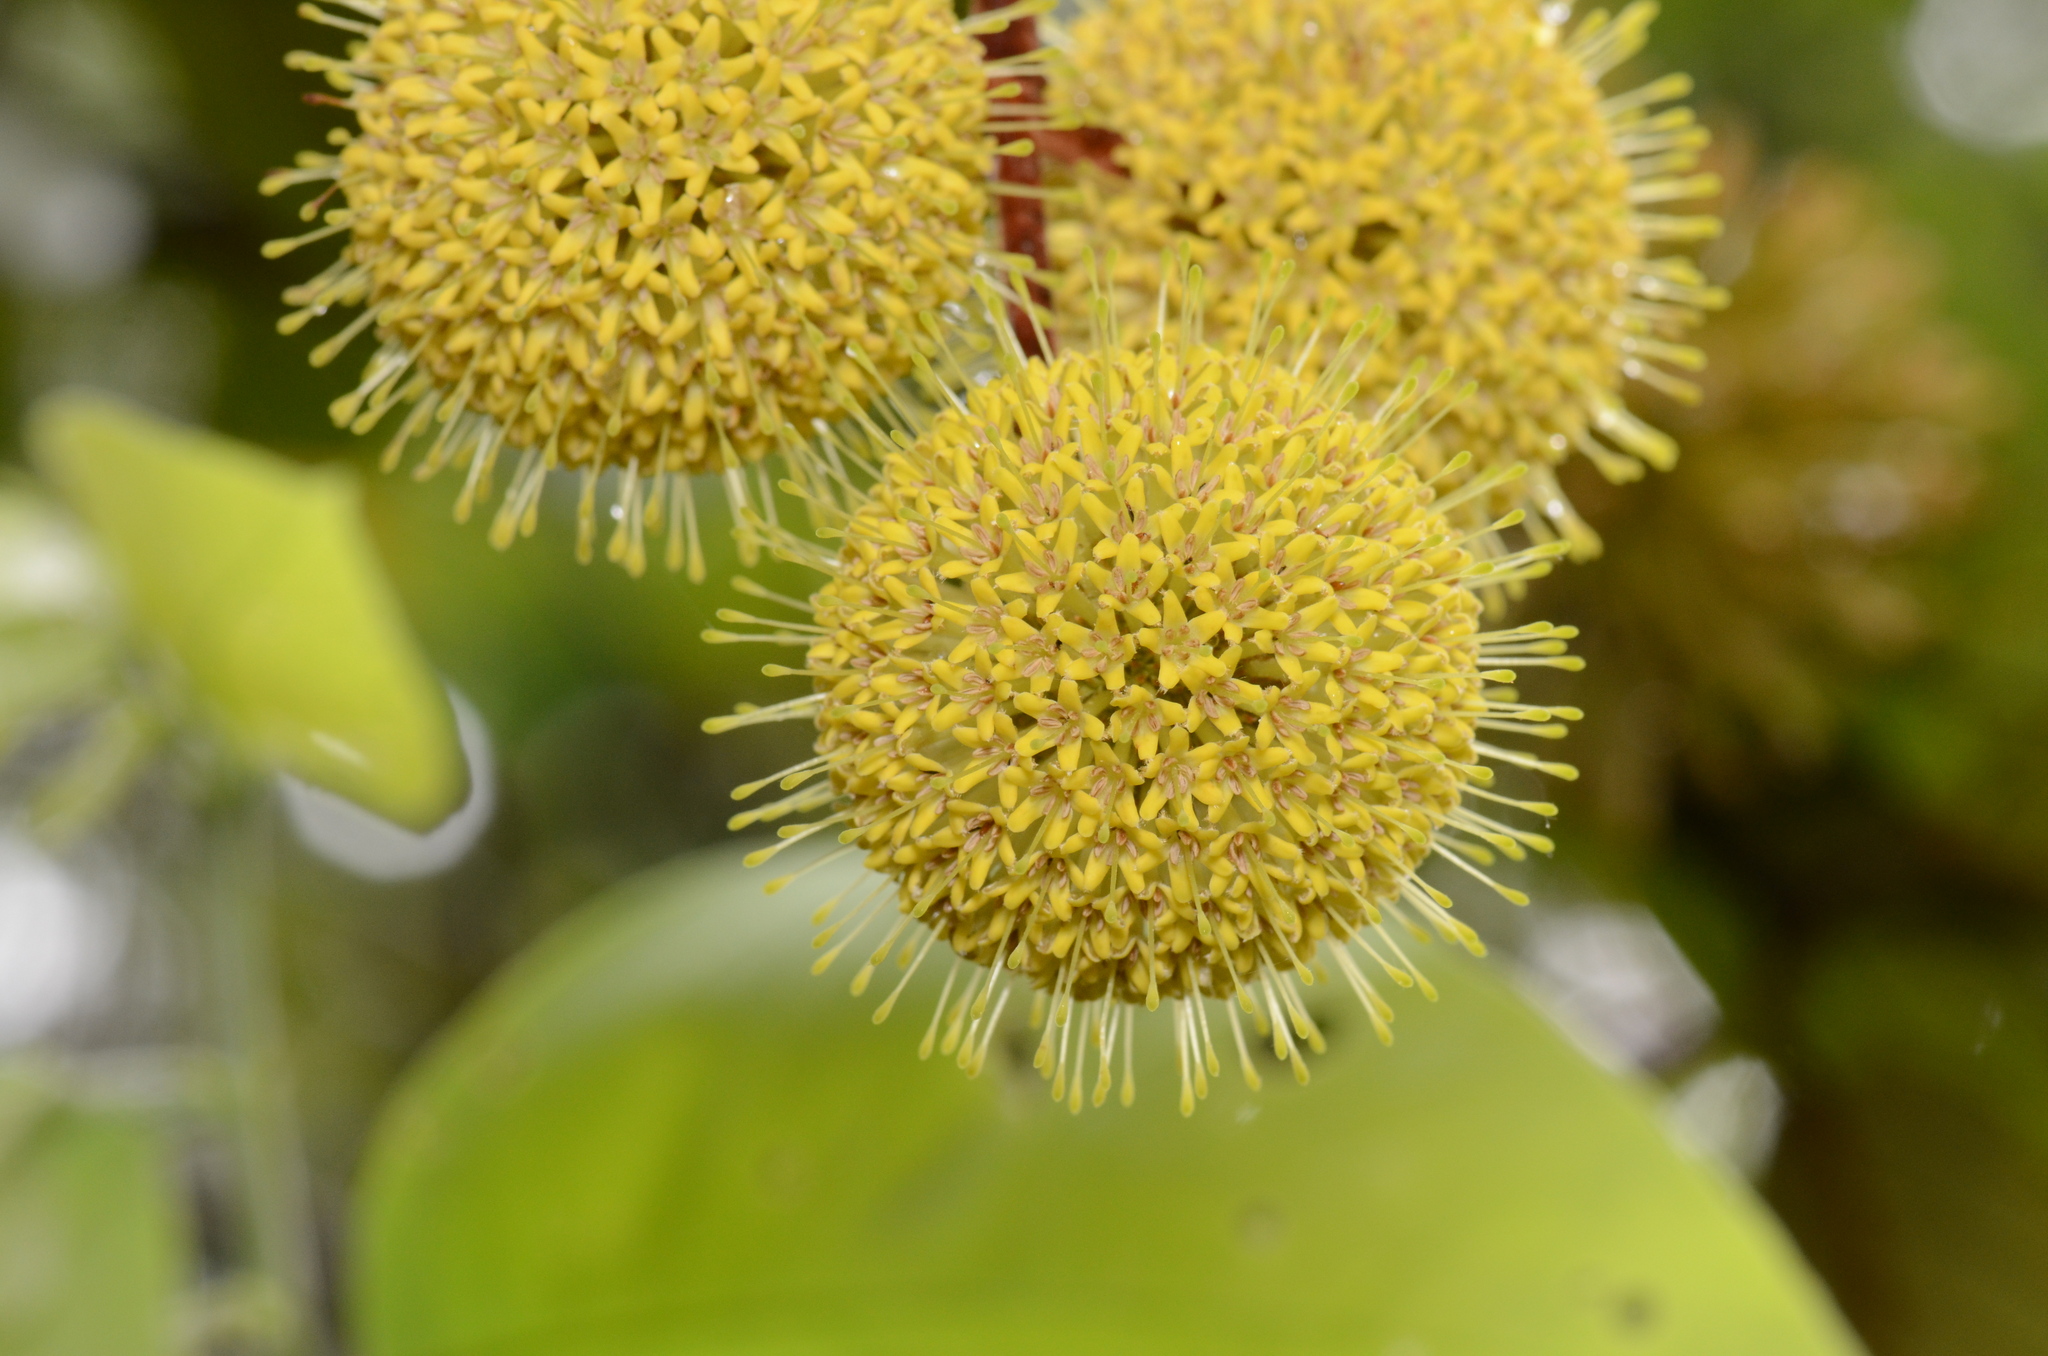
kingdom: Plantae
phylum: Tracheophyta
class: Magnoliopsida
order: Gentianales
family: Rubiaceae
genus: Uncaria
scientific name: Uncaria cordata
